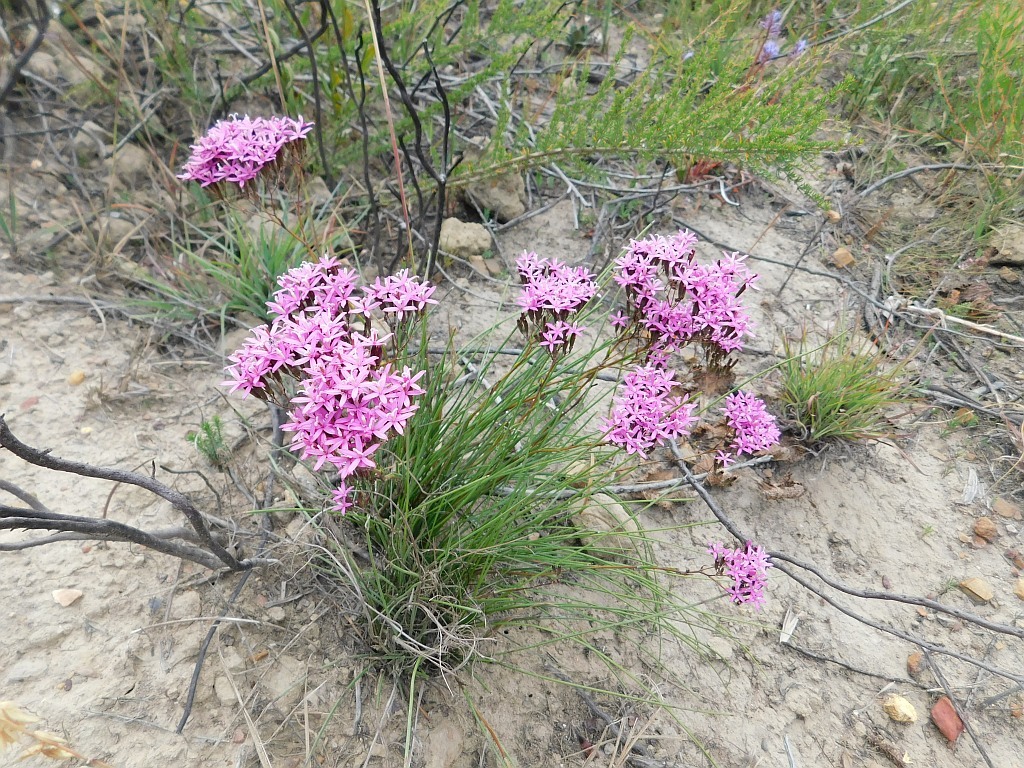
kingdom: Plantae
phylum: Tracheophyta
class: Magnoliopsida
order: Asterales
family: Asteraceae
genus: Corymbium
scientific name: Corymbium africanum
